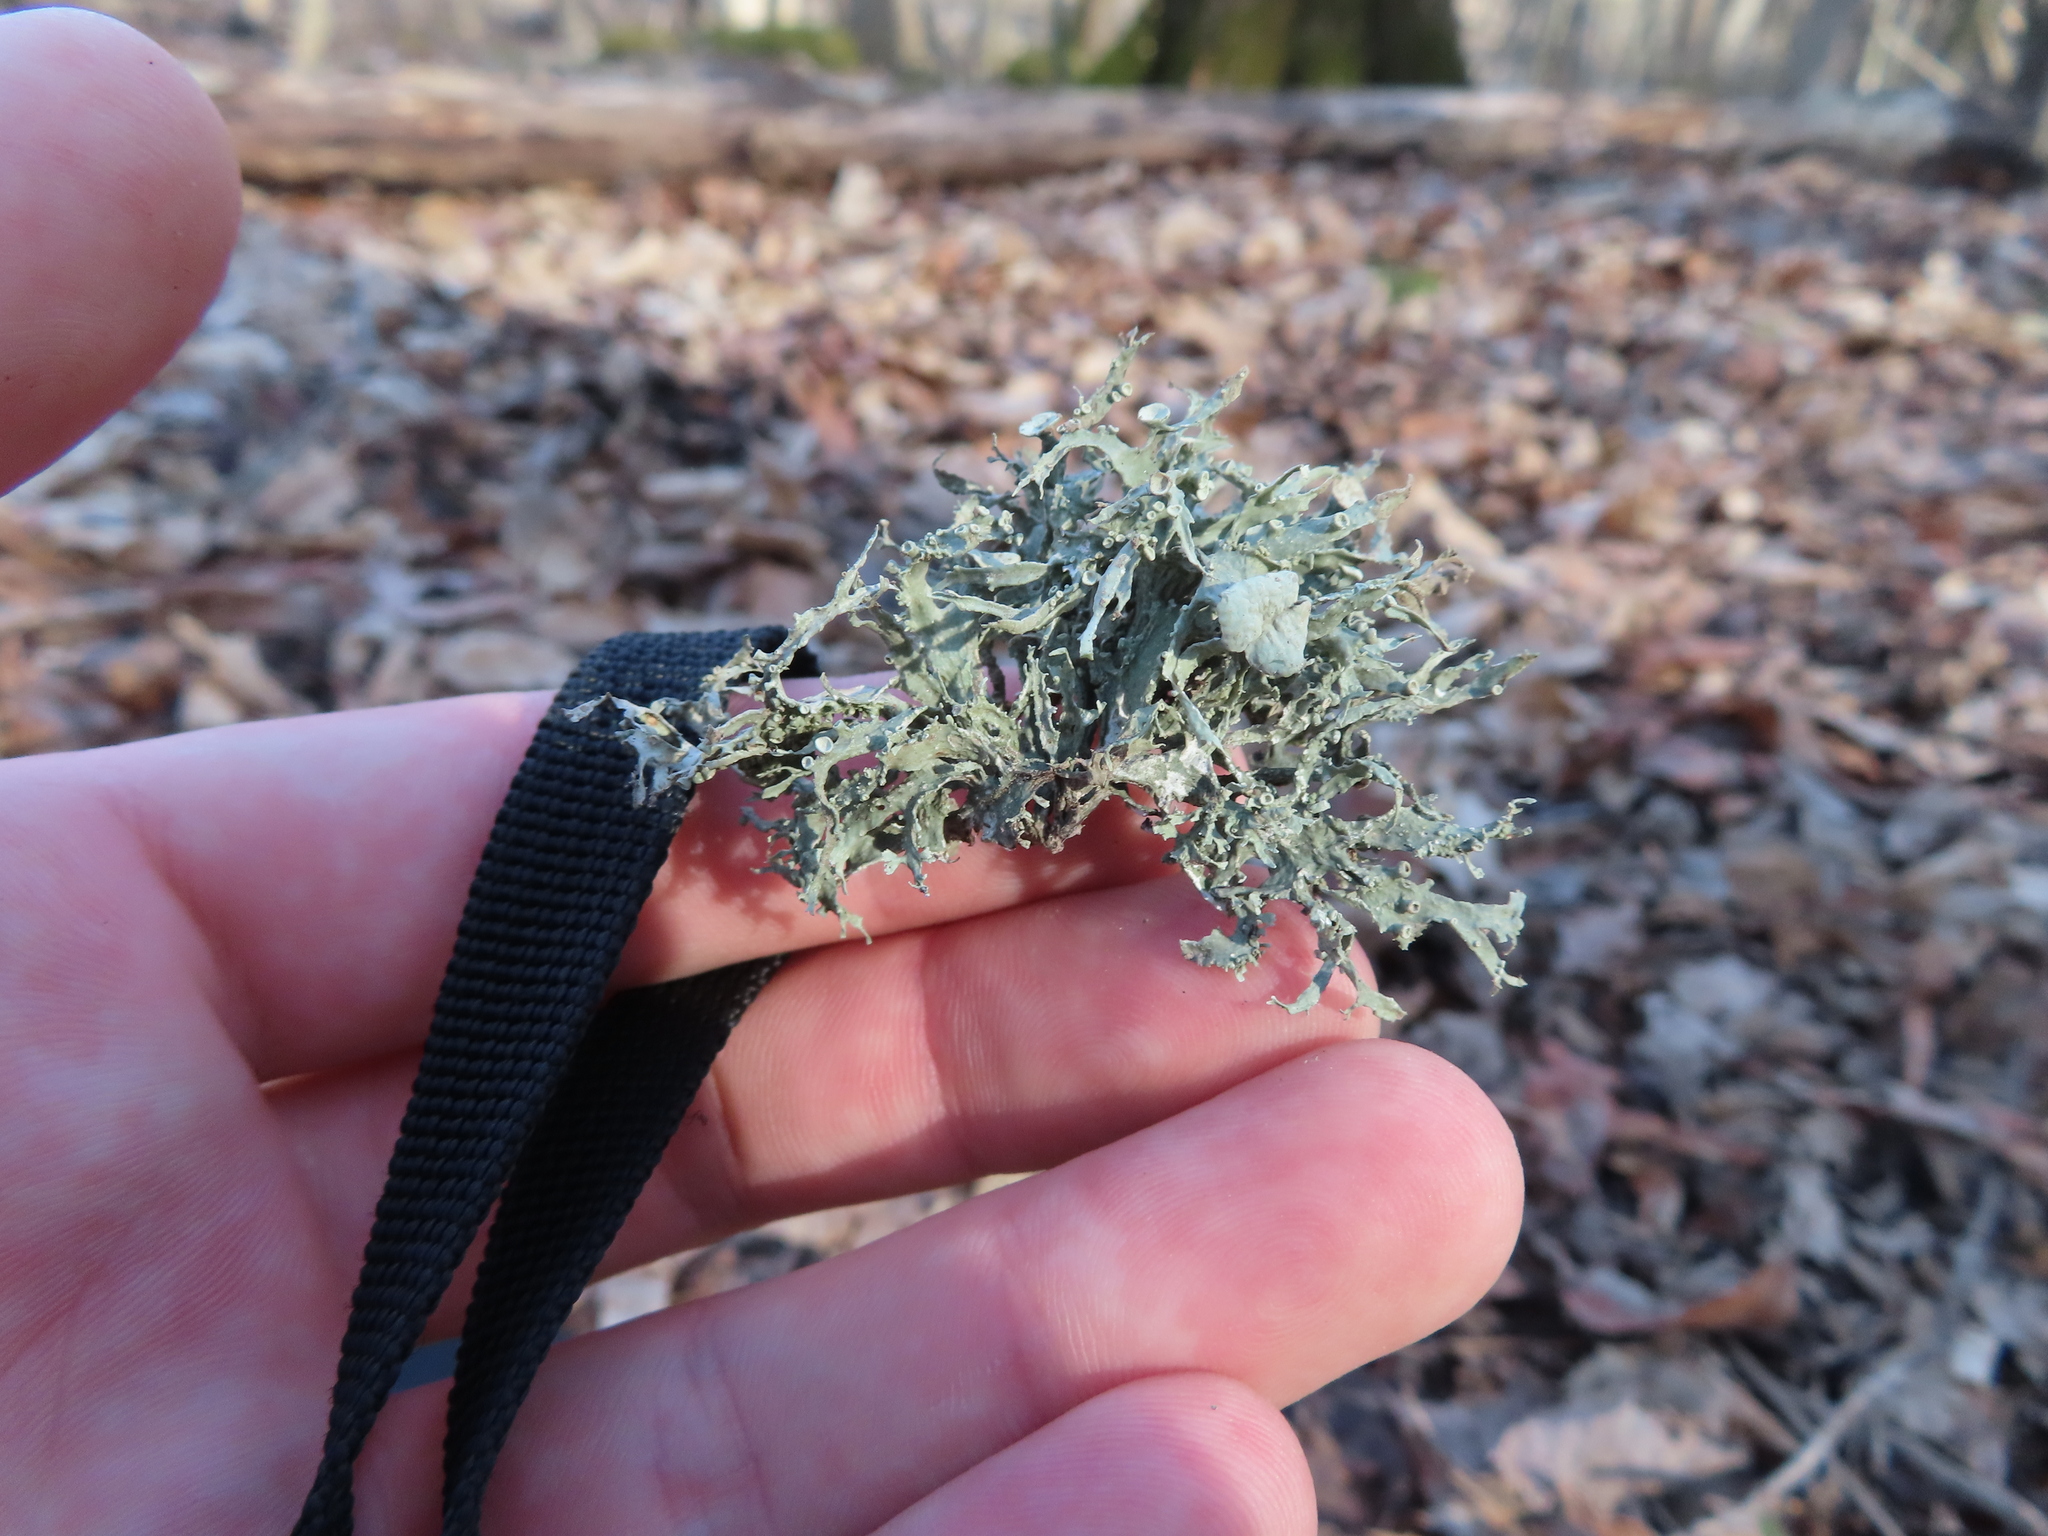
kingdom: Fungi
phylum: Ascomycota
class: Lecanoromycetes
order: Lecanorales
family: Ramalinaceae
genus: Ramalina
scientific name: Ramalina americana
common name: Sinewed bush lichen
